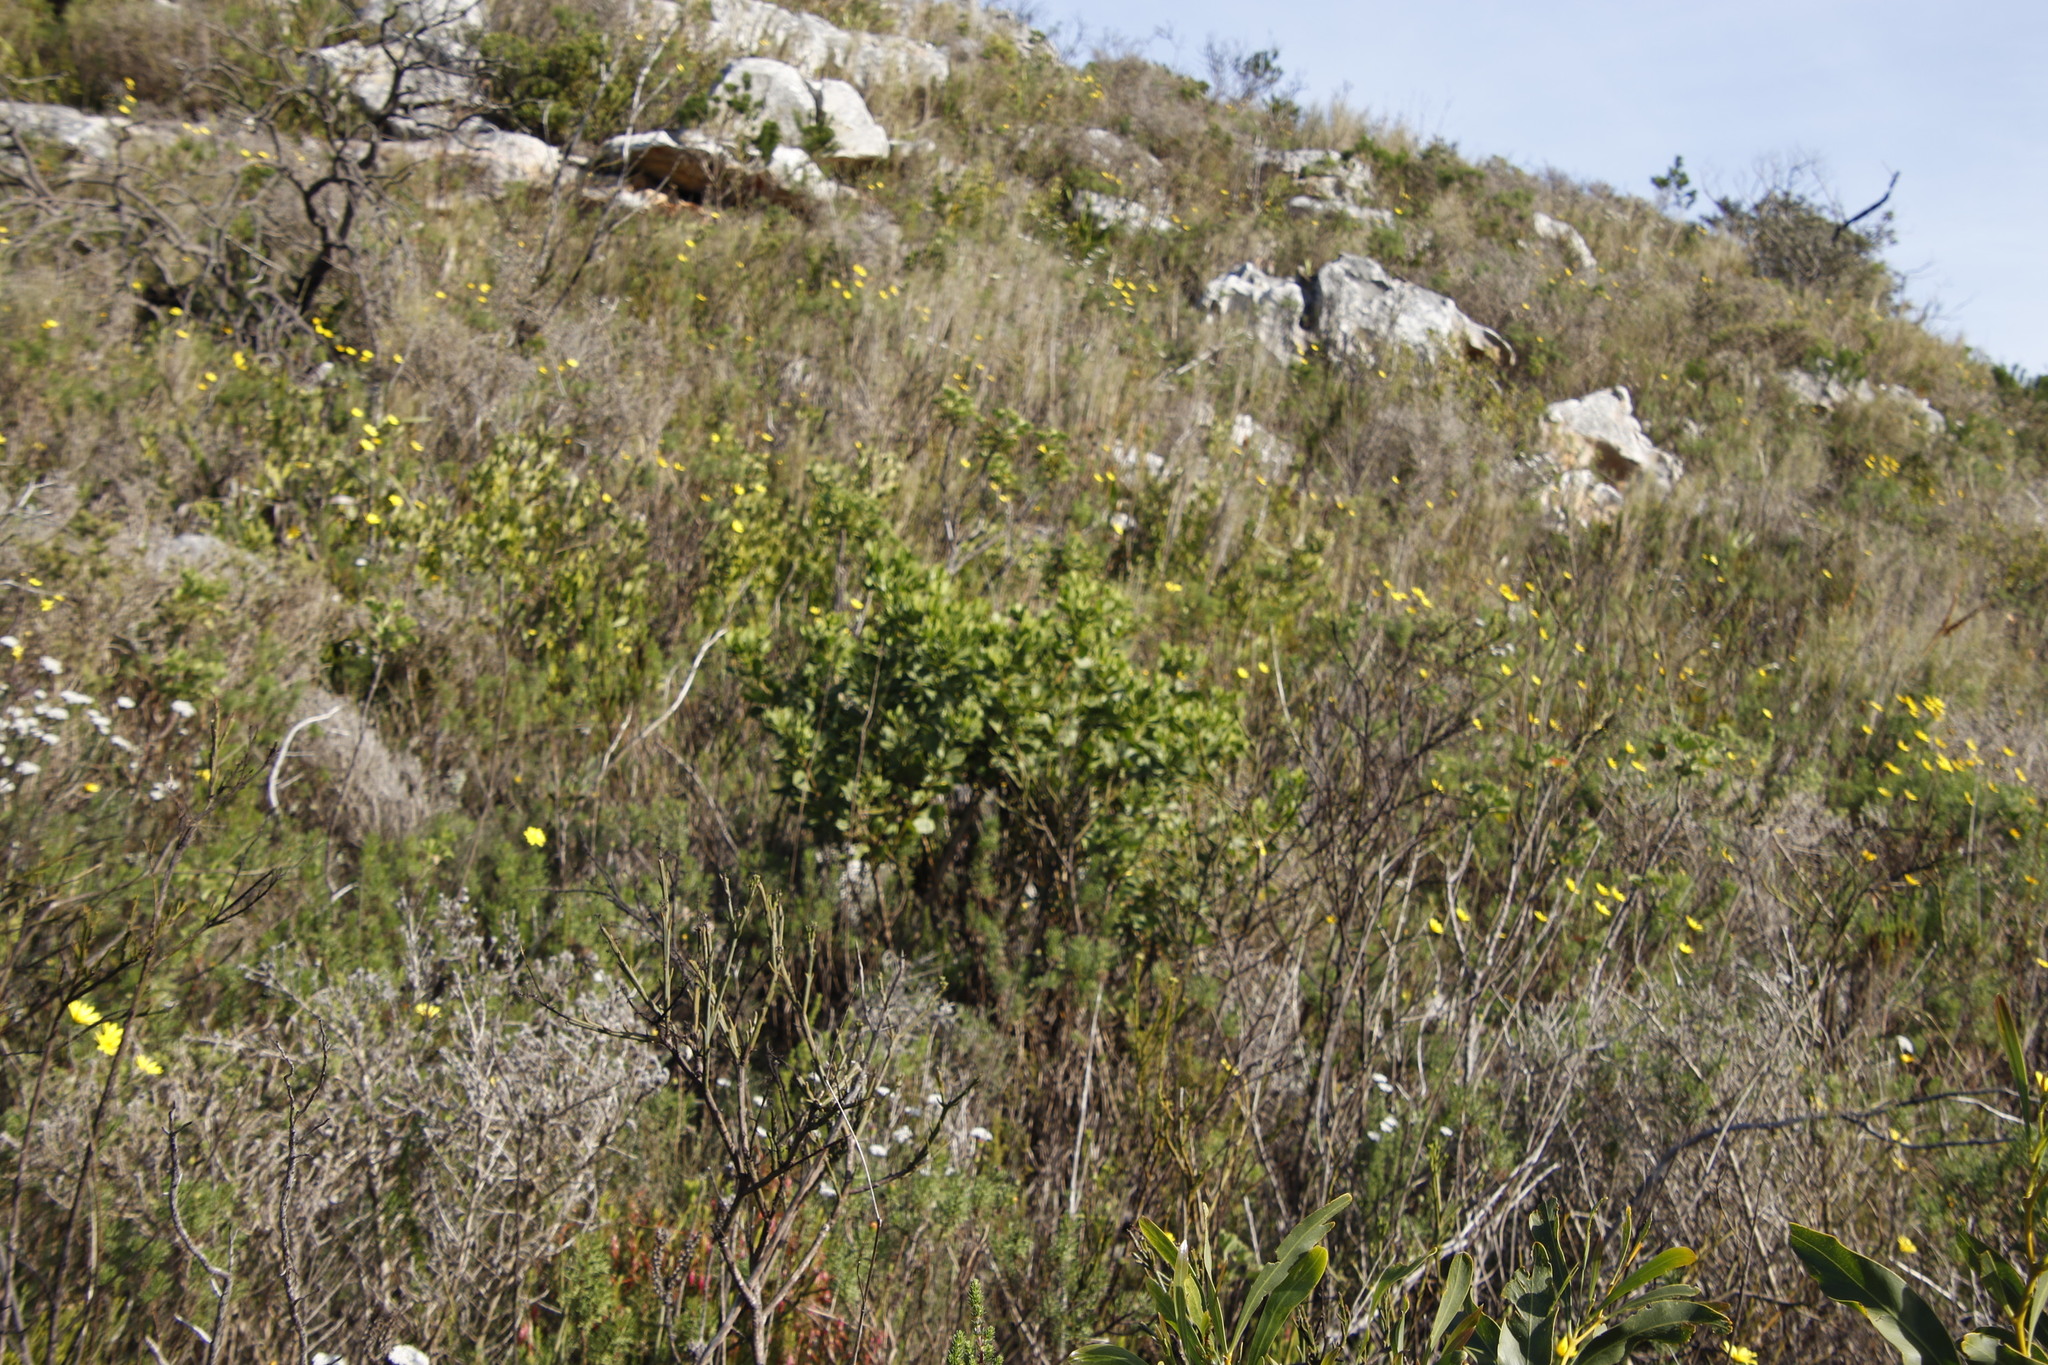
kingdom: Plantae
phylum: Tracheophyta
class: Magnoliopsida
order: Asterales
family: Asteraceae
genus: Osteospermum
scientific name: Osteospermum moniliferum
